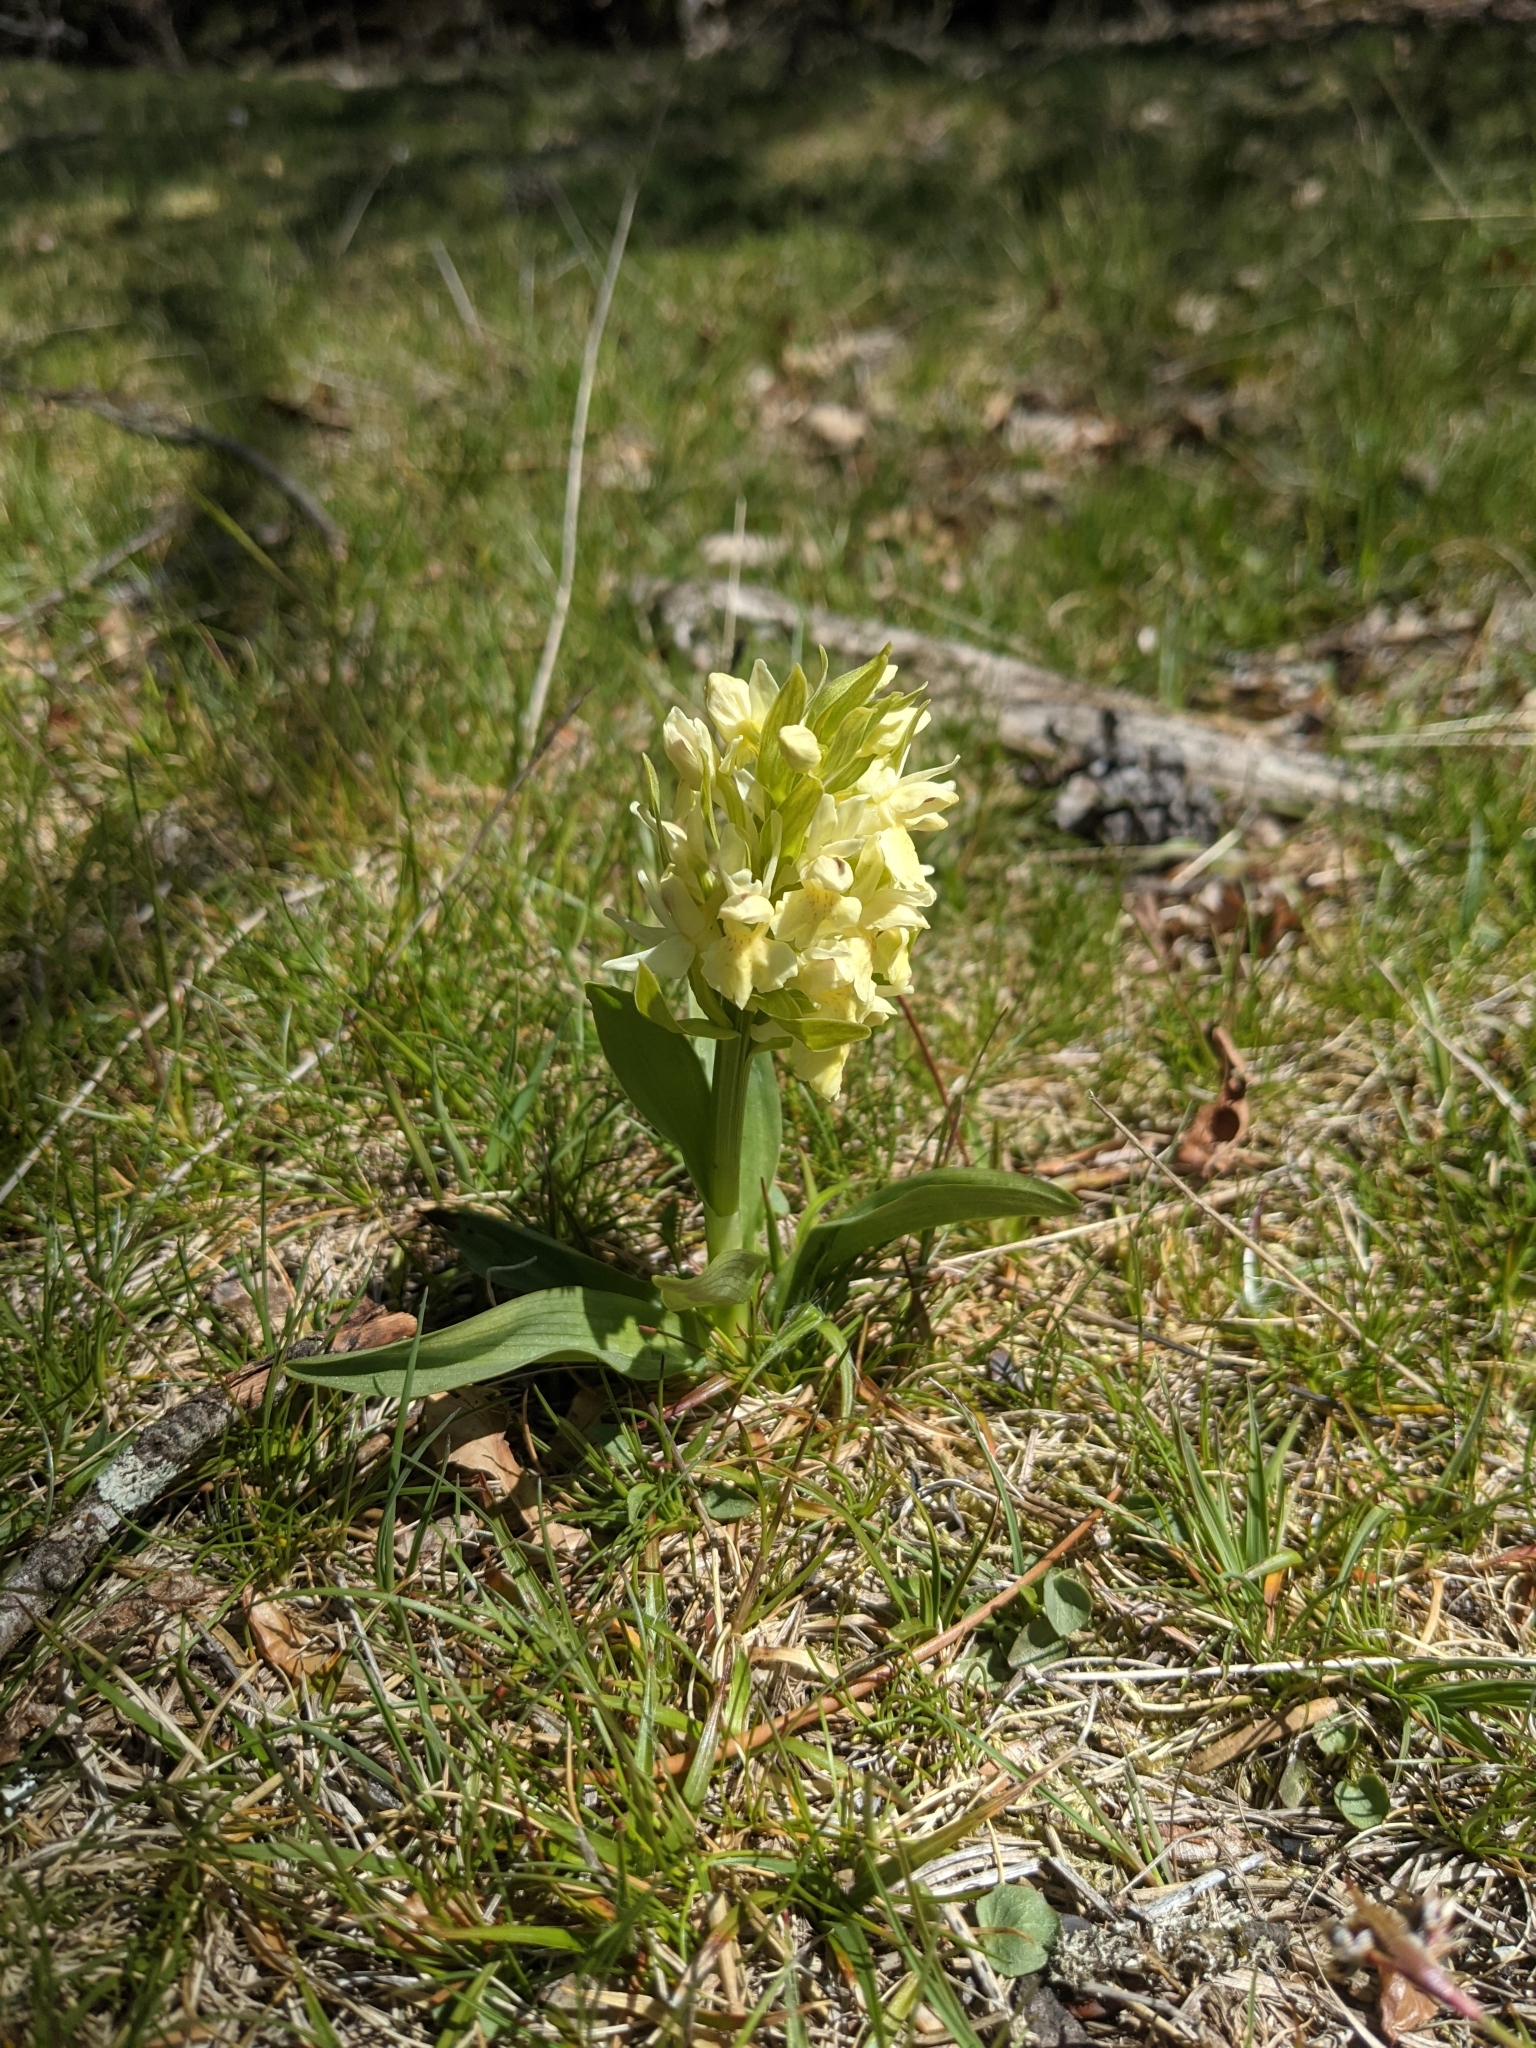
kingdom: Plantae
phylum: Tracheophyta
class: Liliopsida
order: Asparagales
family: Orchidaceae
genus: Dactylorhiza
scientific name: Dactylorhiza sambucina
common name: Elder-flowered orchid
